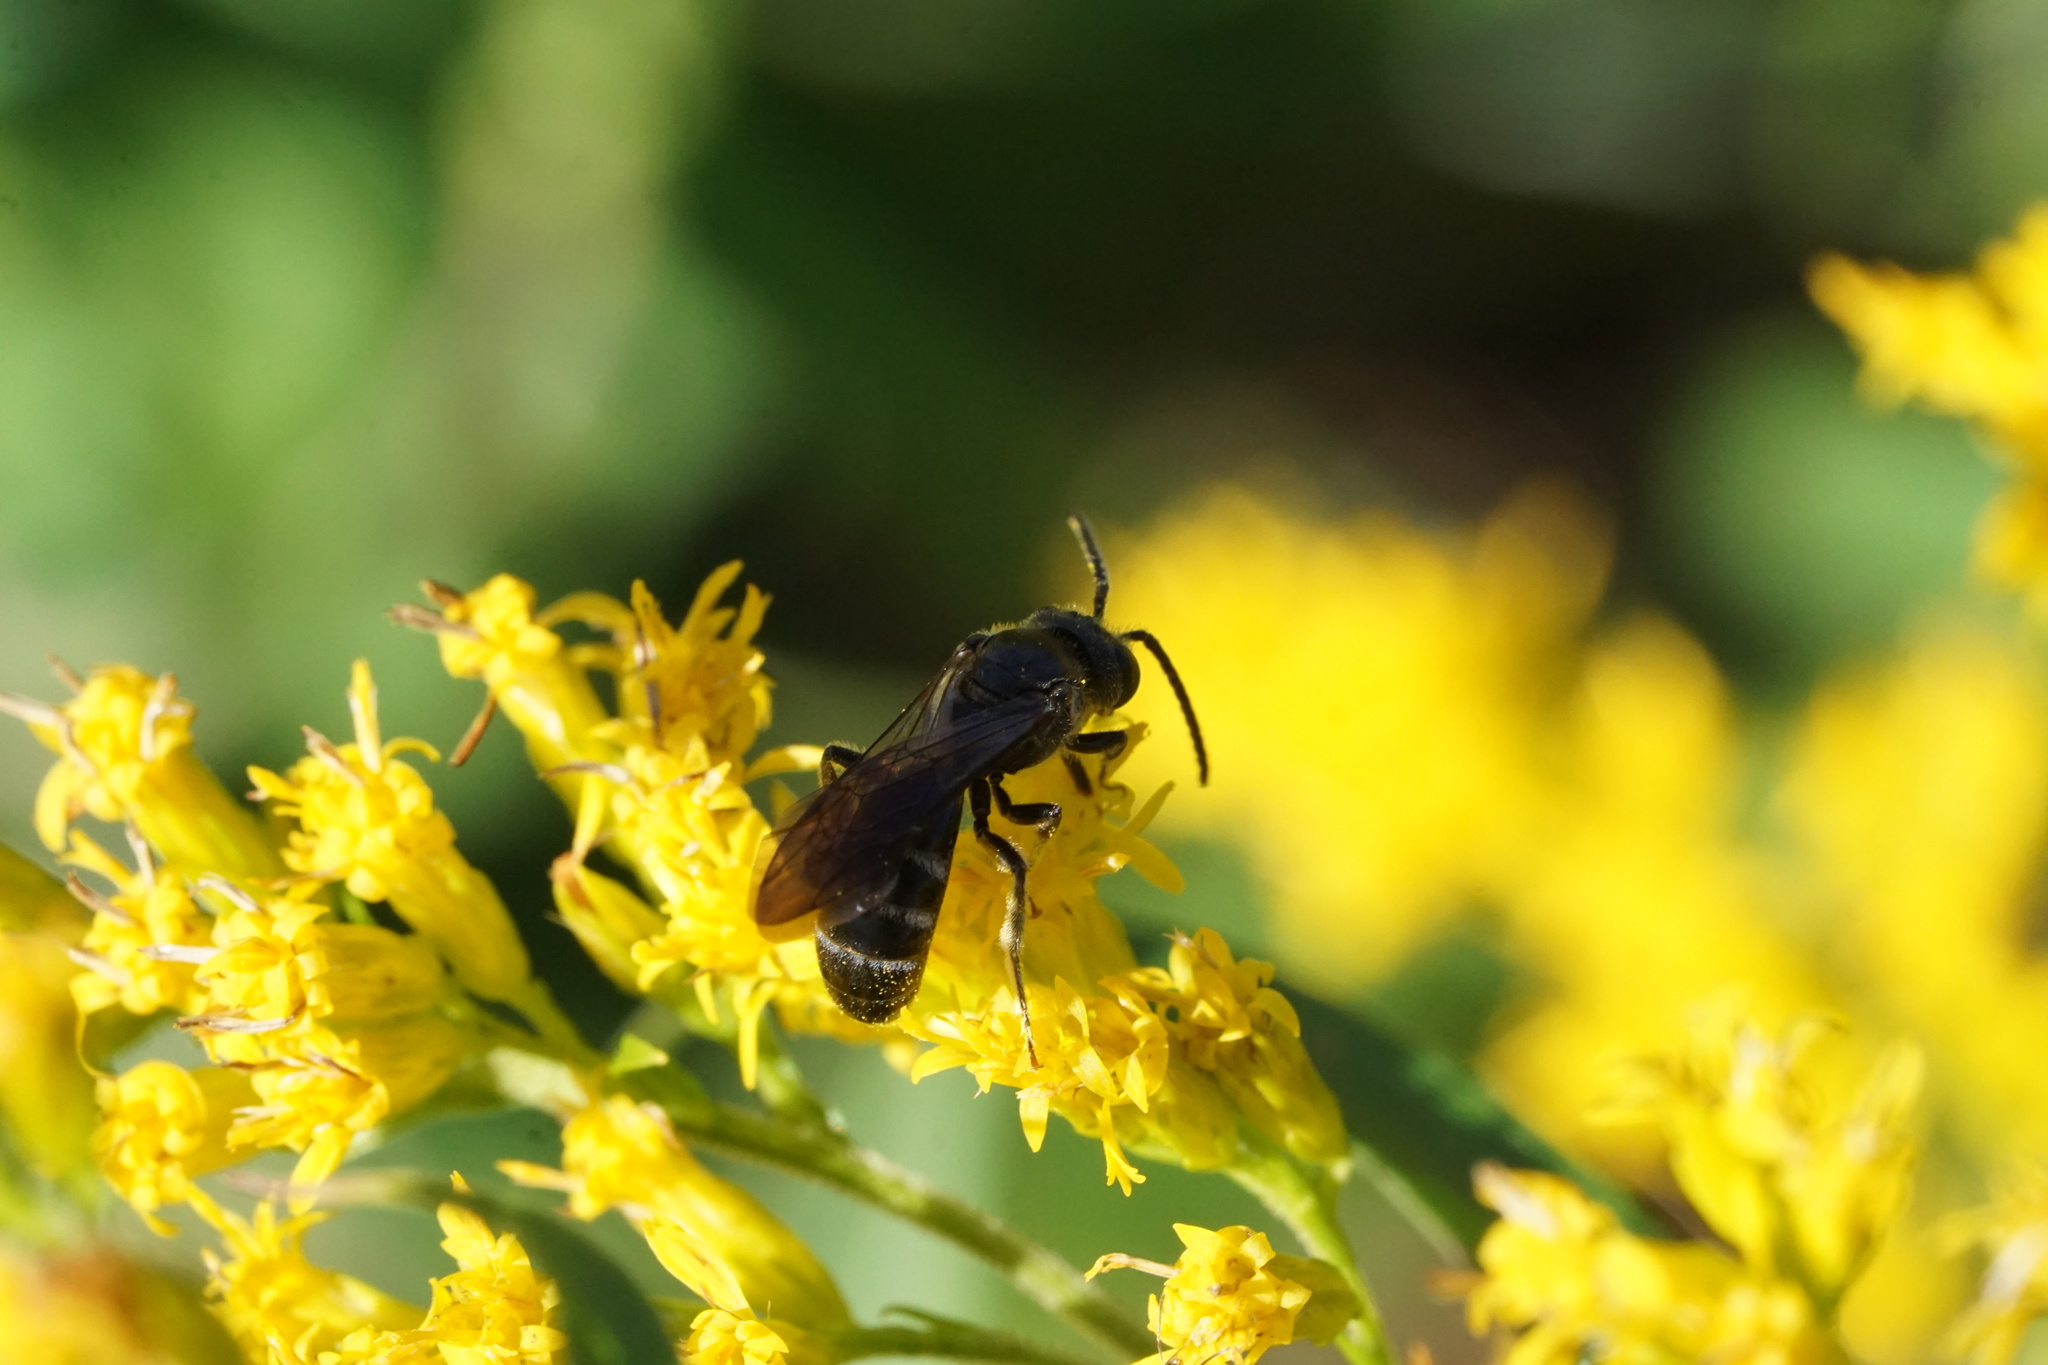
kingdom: Animalia
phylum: Arthropoda
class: Insecta
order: Hymenoptera
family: Halictidae
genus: Lasioglossum
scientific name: Lasioglossum fuscipenne
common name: Brown-winged sweat bee
